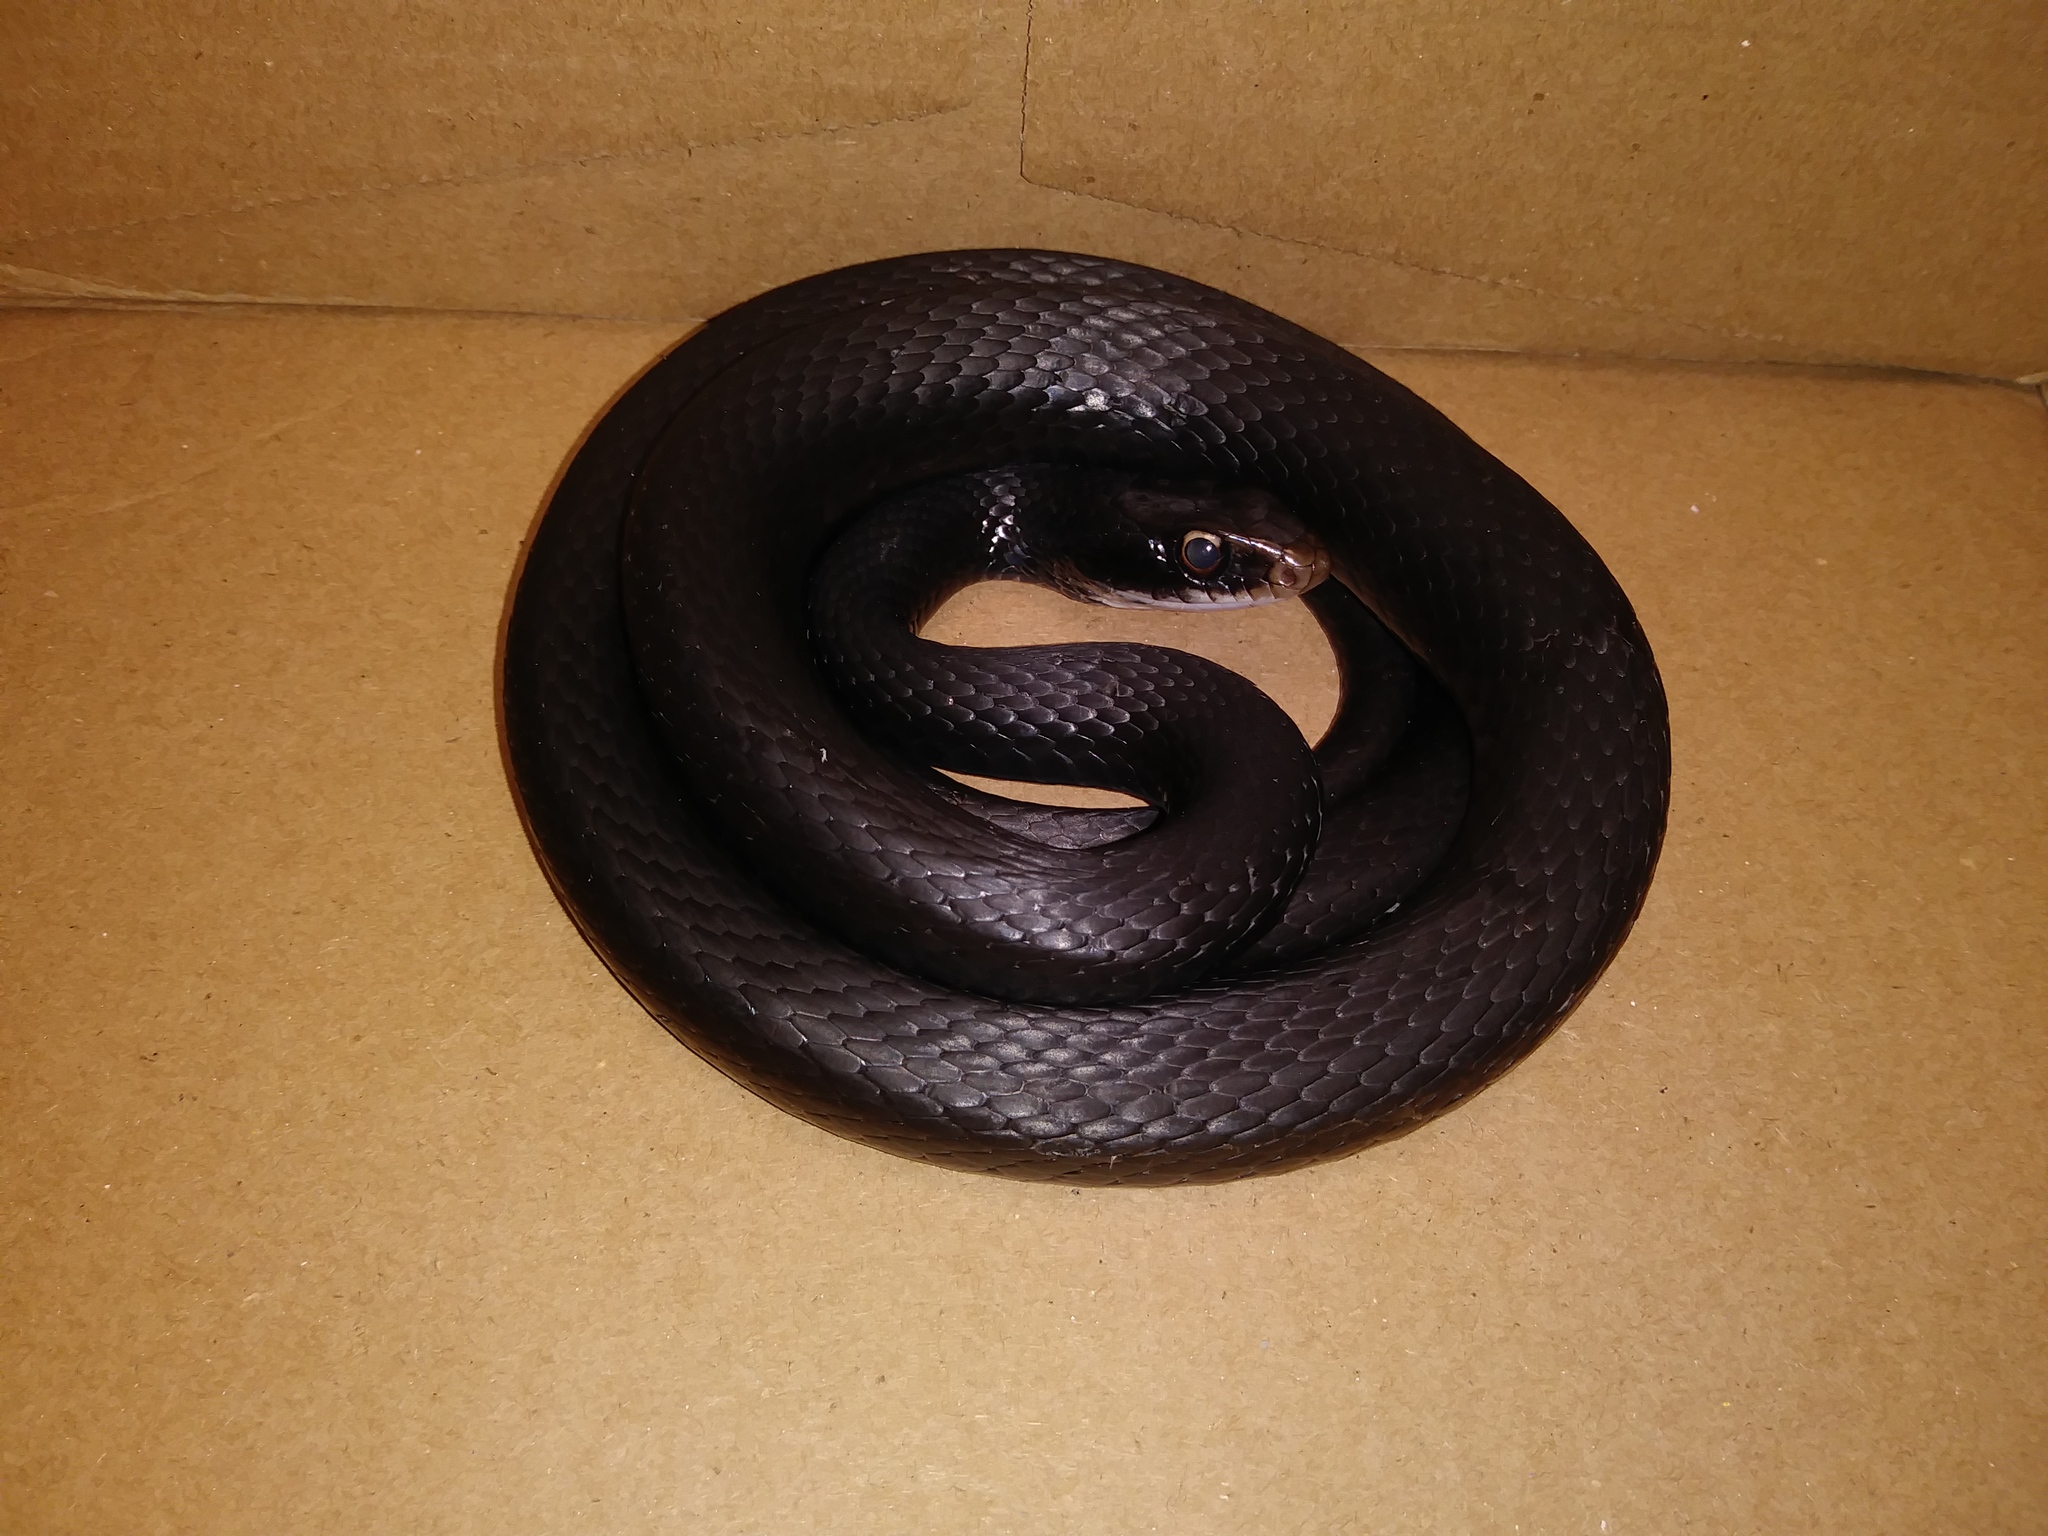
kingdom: Animalia
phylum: Chordata
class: Squamata
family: Colubridae
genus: Coluber
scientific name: Coluber constrictor
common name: Eastern racer
